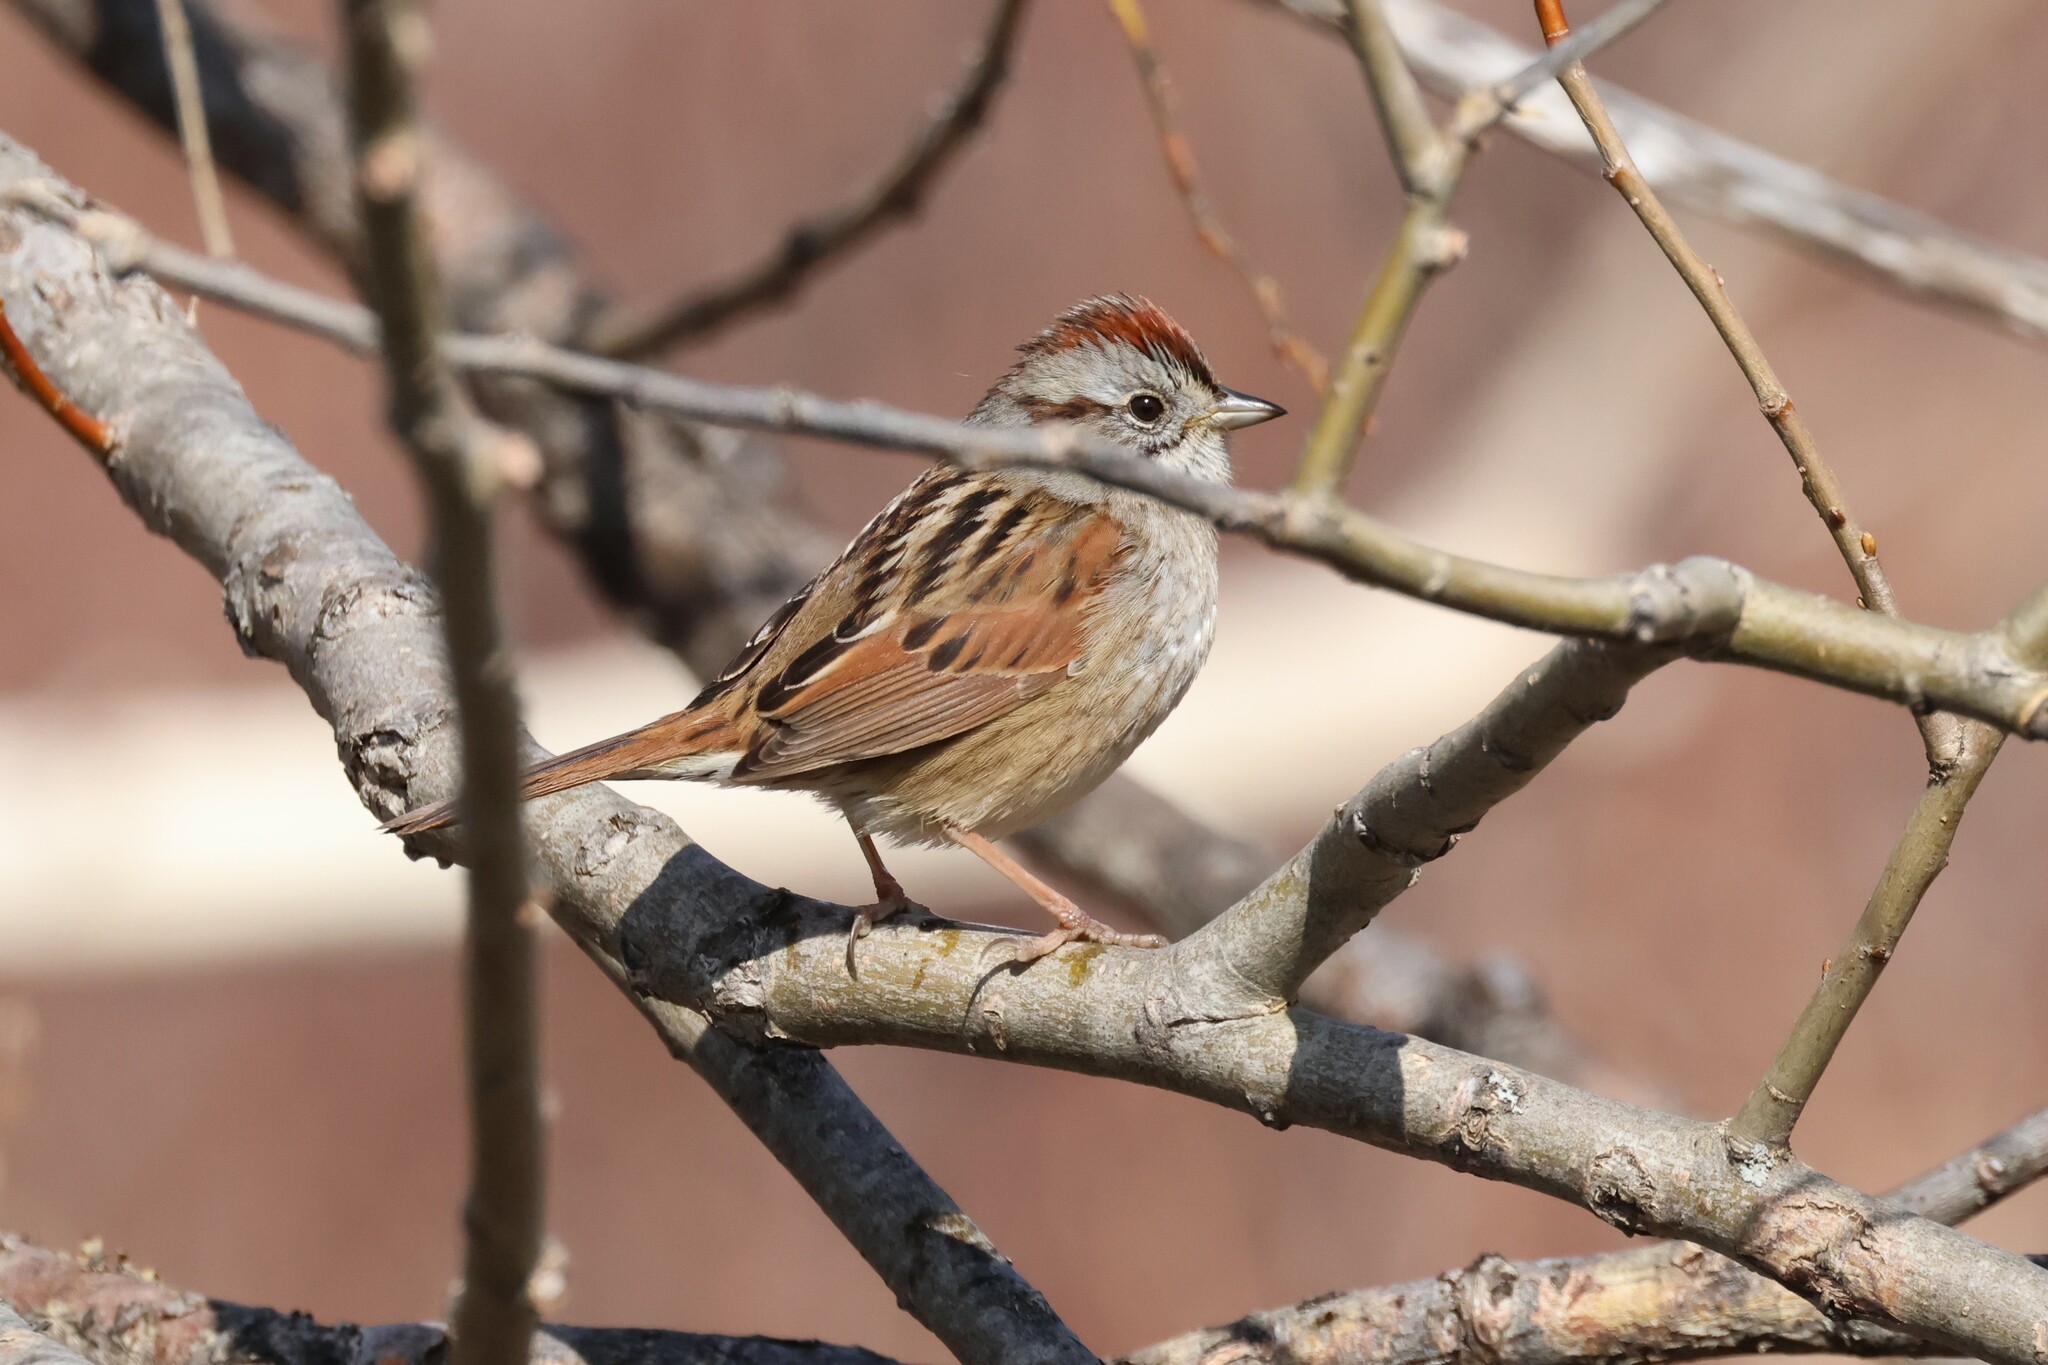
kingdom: Animalia
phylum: Chordata
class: Aves
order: Passeriformes
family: Passerellidae
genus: Melospiza
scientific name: Melospiza georgiana
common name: Swamp sparrow
